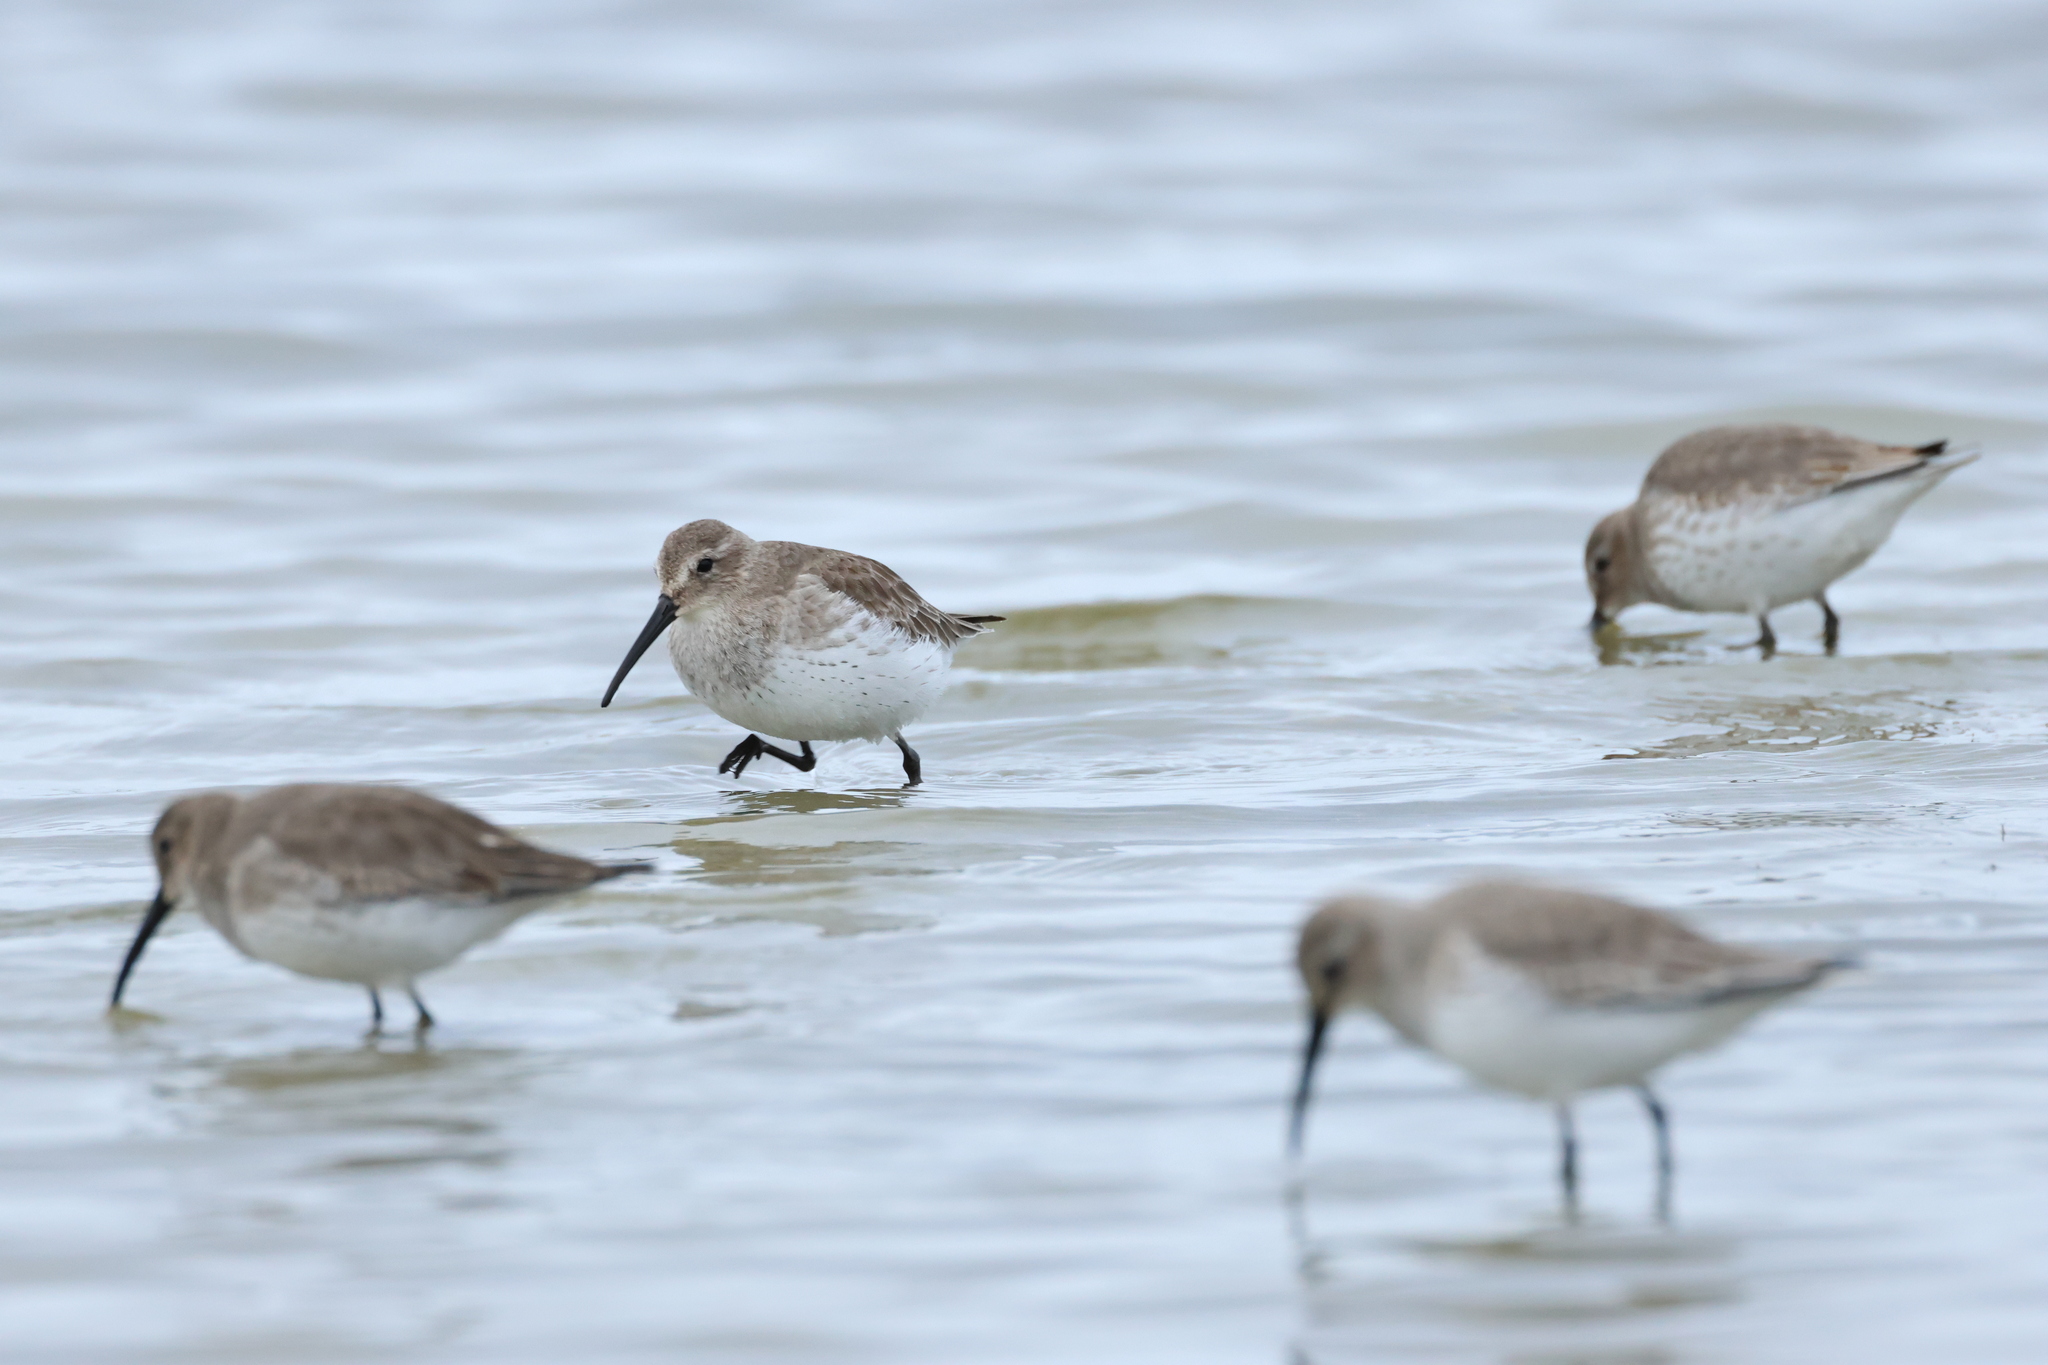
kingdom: Animalia
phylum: Chordata
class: Aves
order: Charadriiformes
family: Scolopacidae
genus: Calidris
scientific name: Calidris alpina
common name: Dunlin
